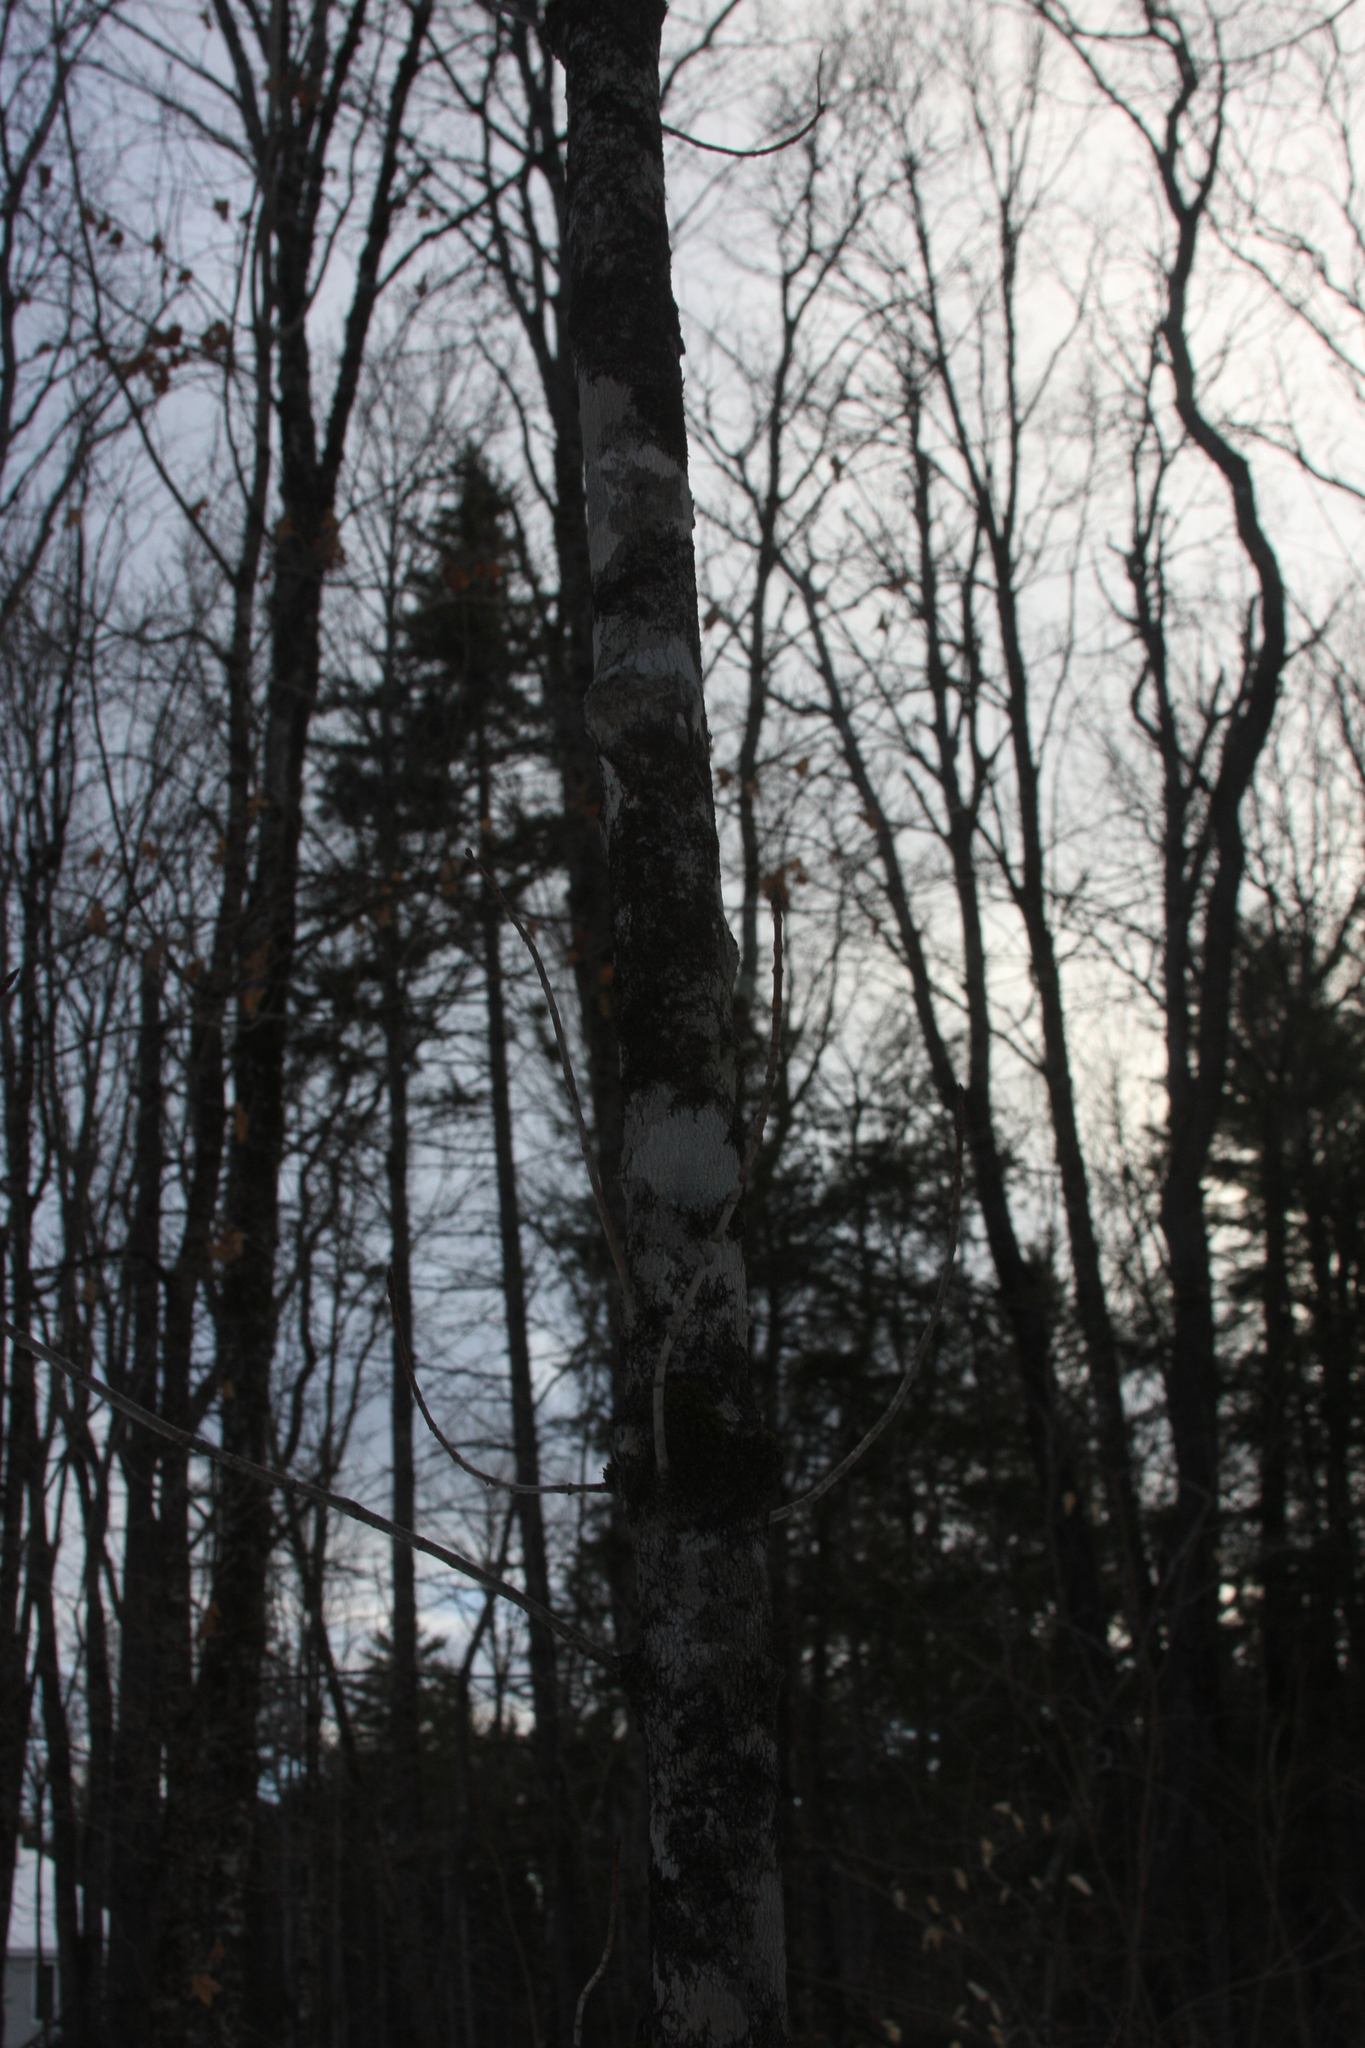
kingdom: Plantae
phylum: Tracheophyta
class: Magnoliopsida
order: Sapindales
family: Sapindaceae
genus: Acer
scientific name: Acer saccharum
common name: Sugar maple
